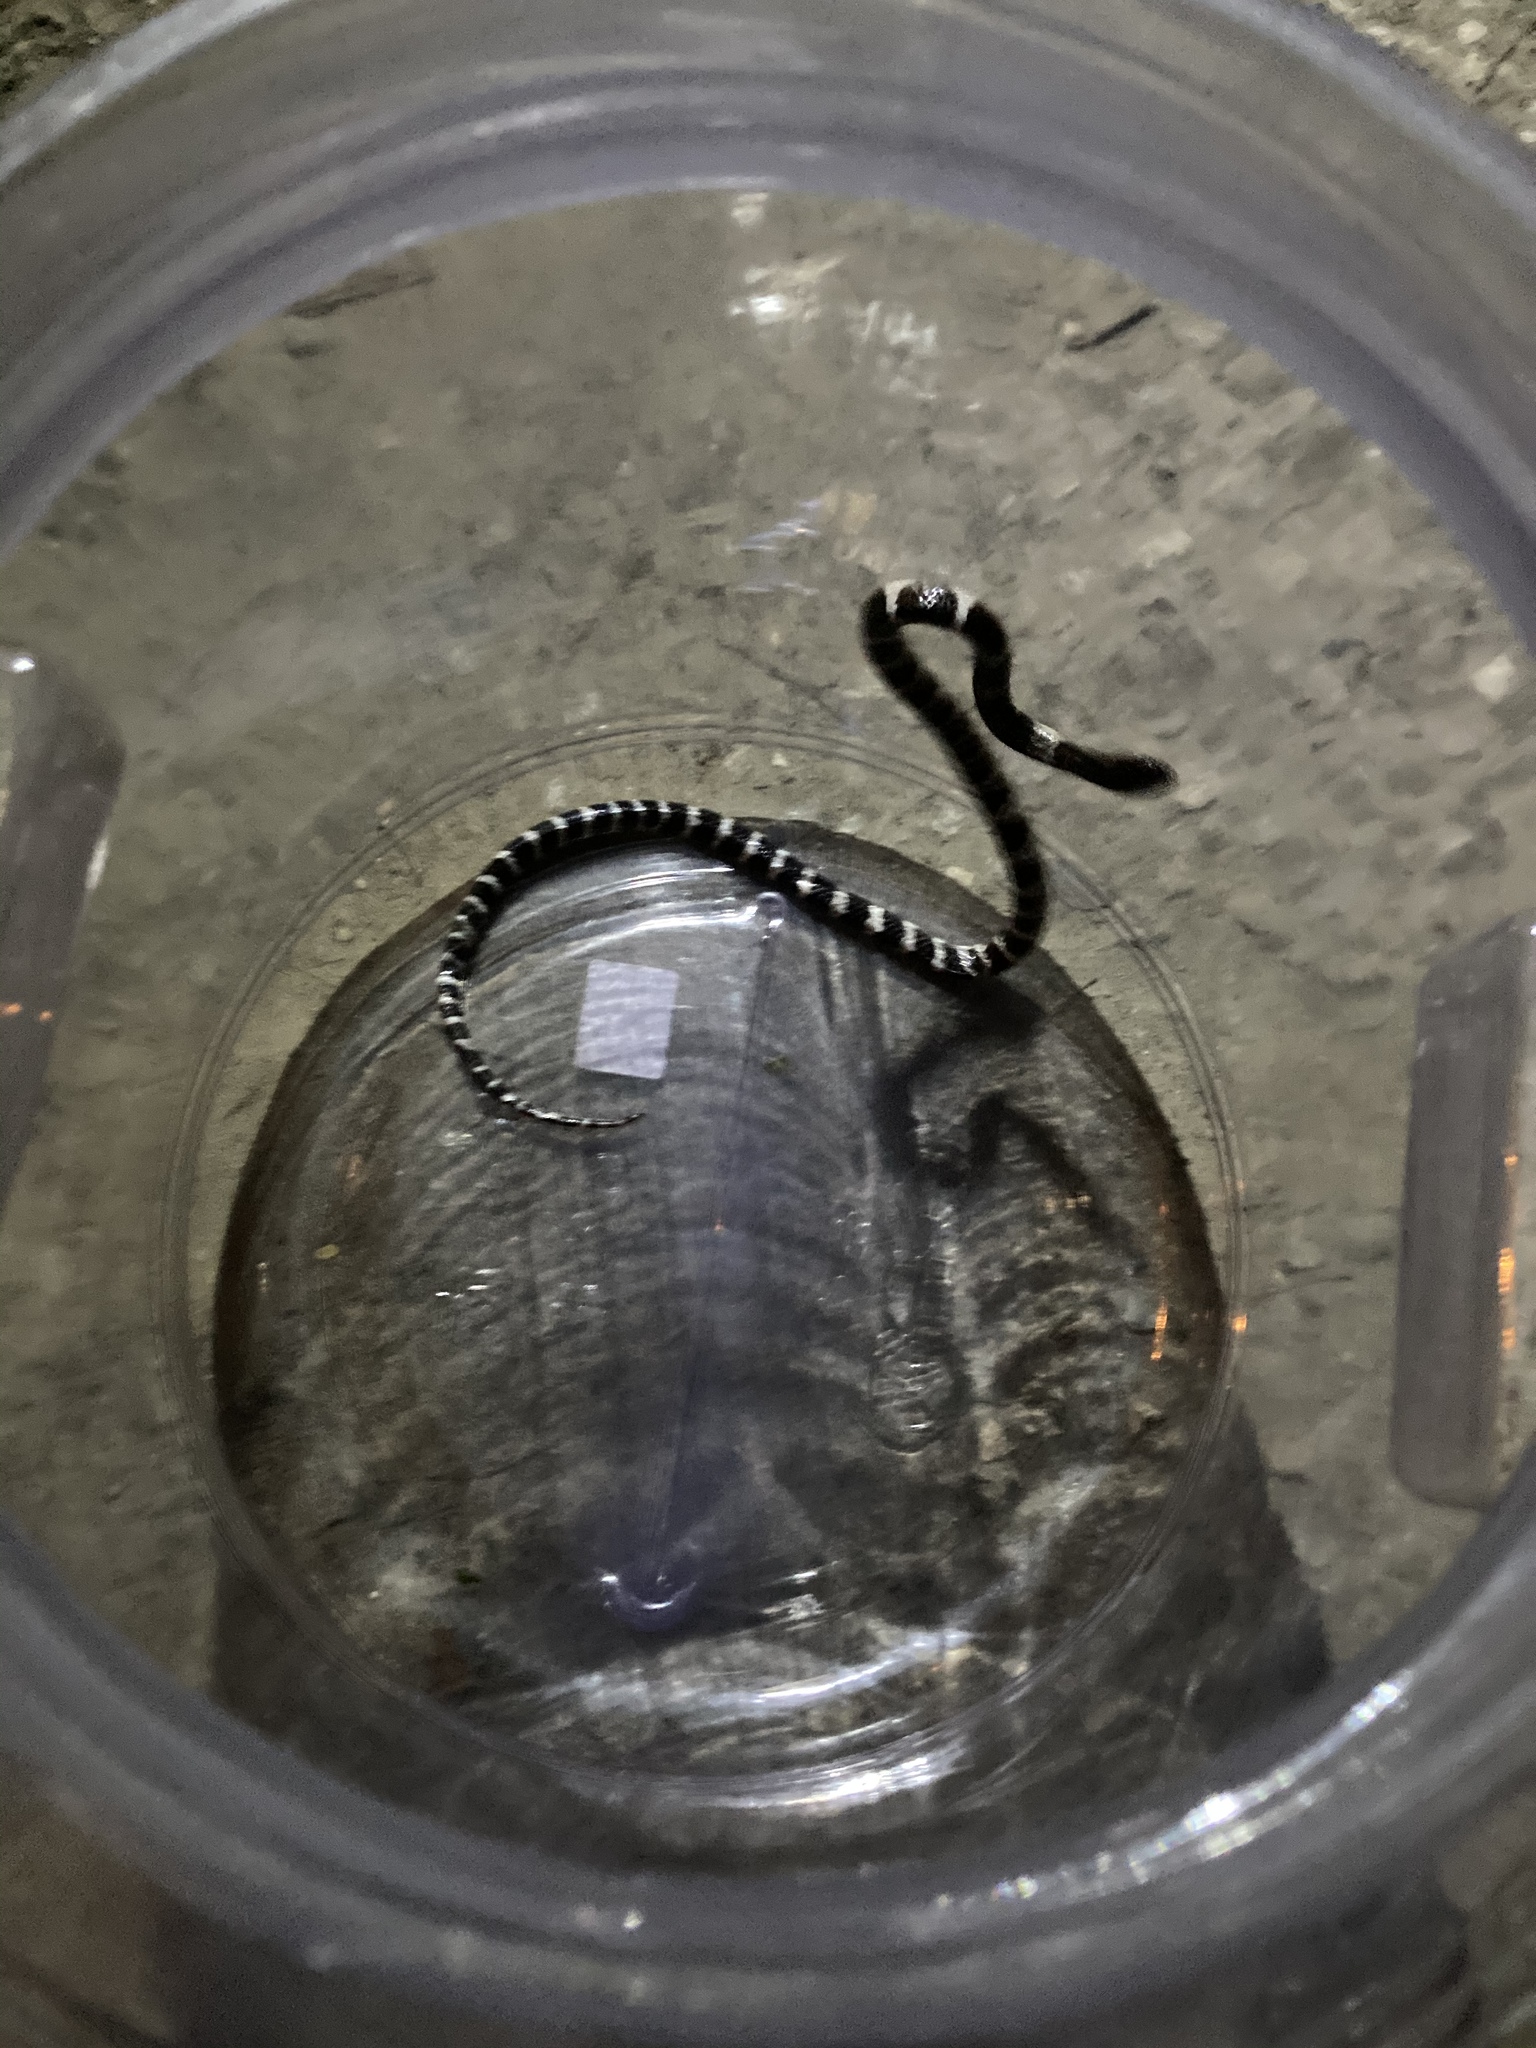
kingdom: Animalia
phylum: Chordata
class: Squamata
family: Elapidae
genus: Bungarus
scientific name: Bungarus multicinctus
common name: Many-banded krait
